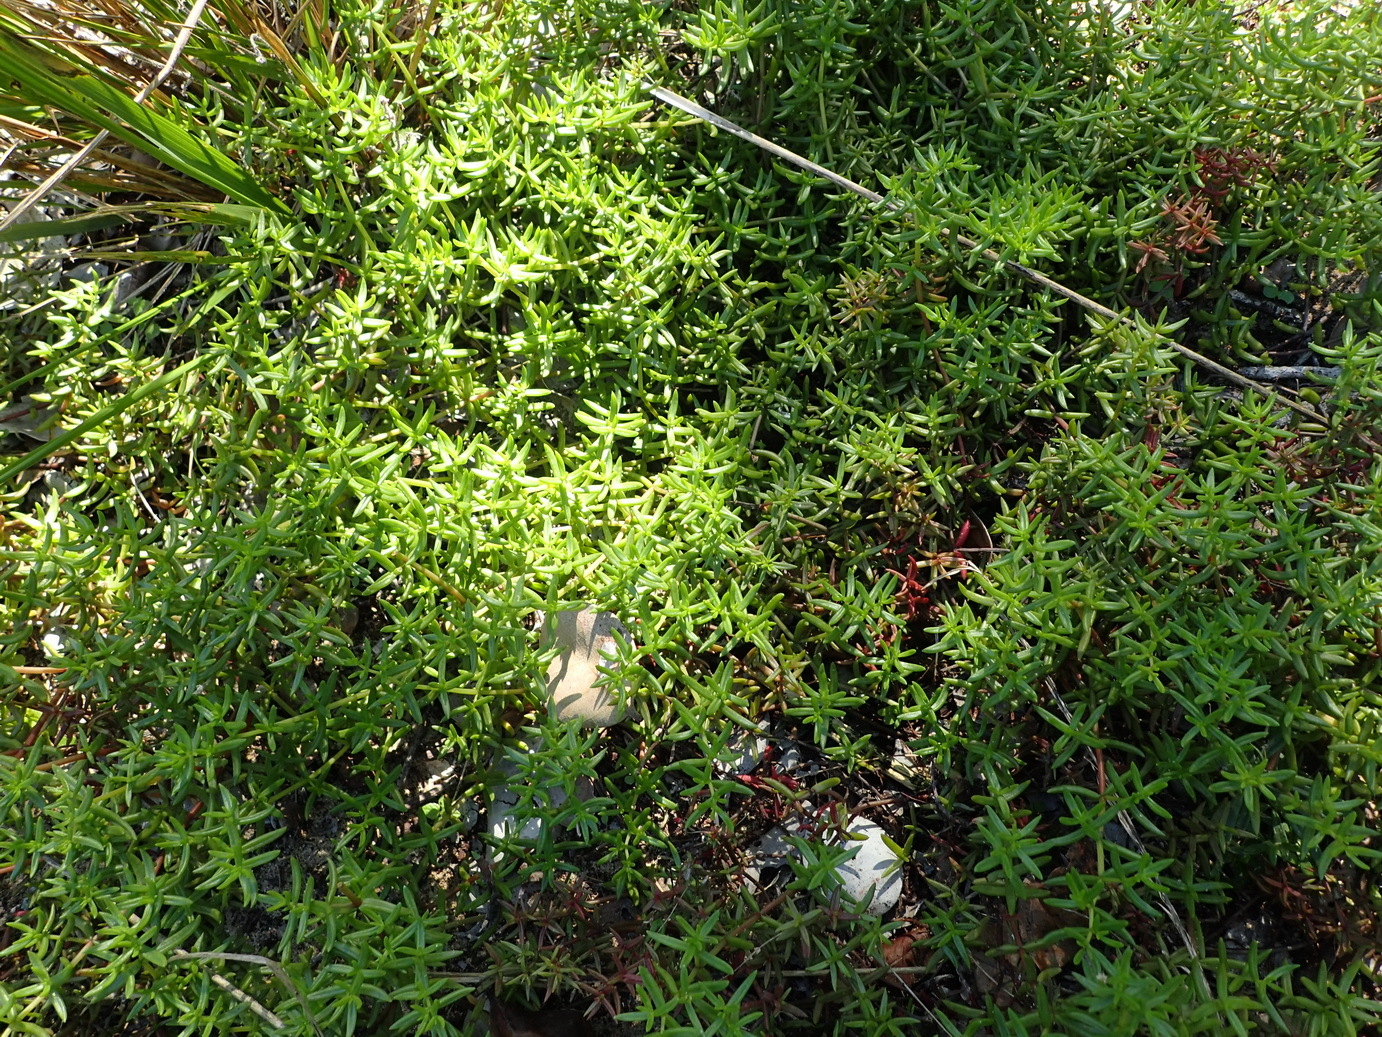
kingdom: Plantae
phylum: Tracheophyta
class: Magnoliopsida
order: Saxifragales
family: Crassulaceae
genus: Crassula
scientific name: Crassula expansa
